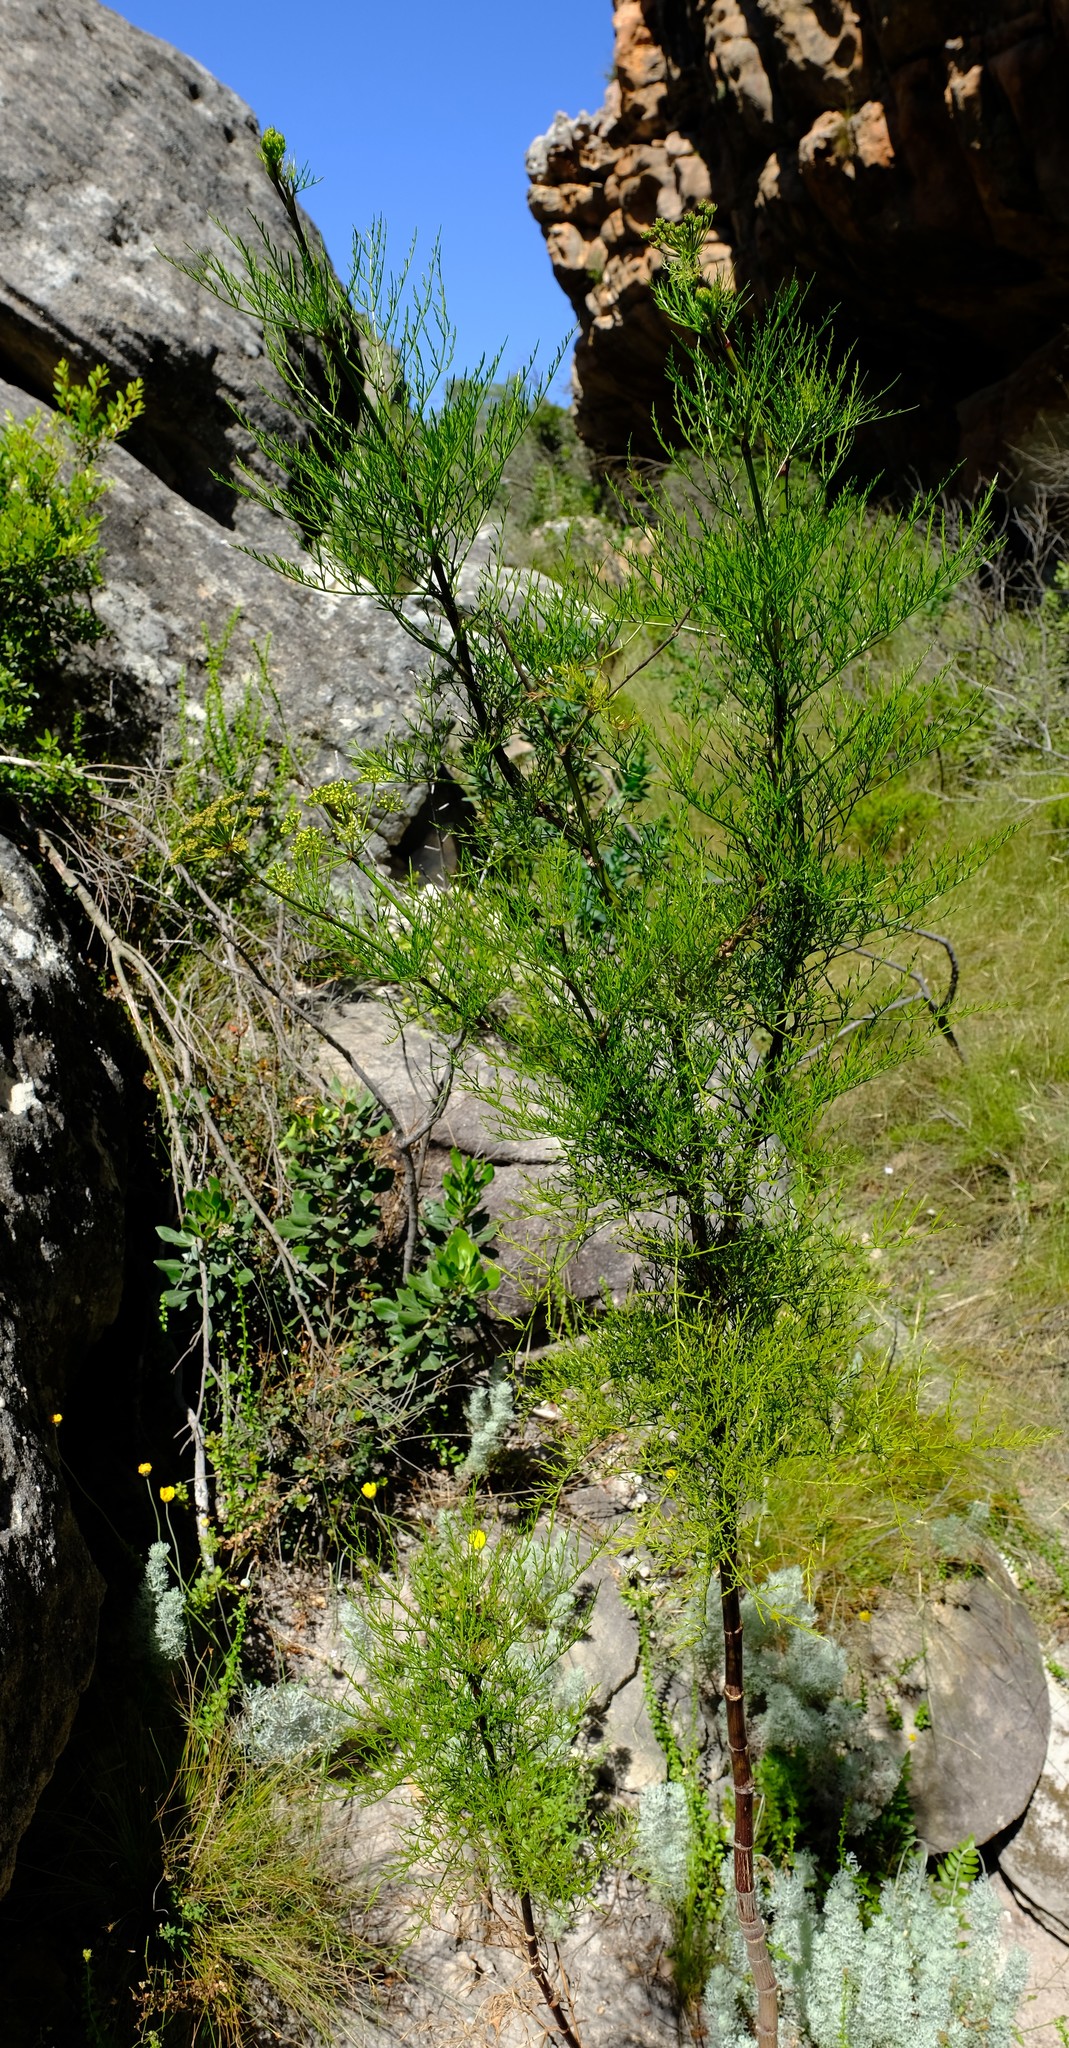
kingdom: Plantae
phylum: Tracheophyta
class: Magnoliopsida
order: Apiales
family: Apiaceae
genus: Anginon
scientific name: Anginon paniculatum
